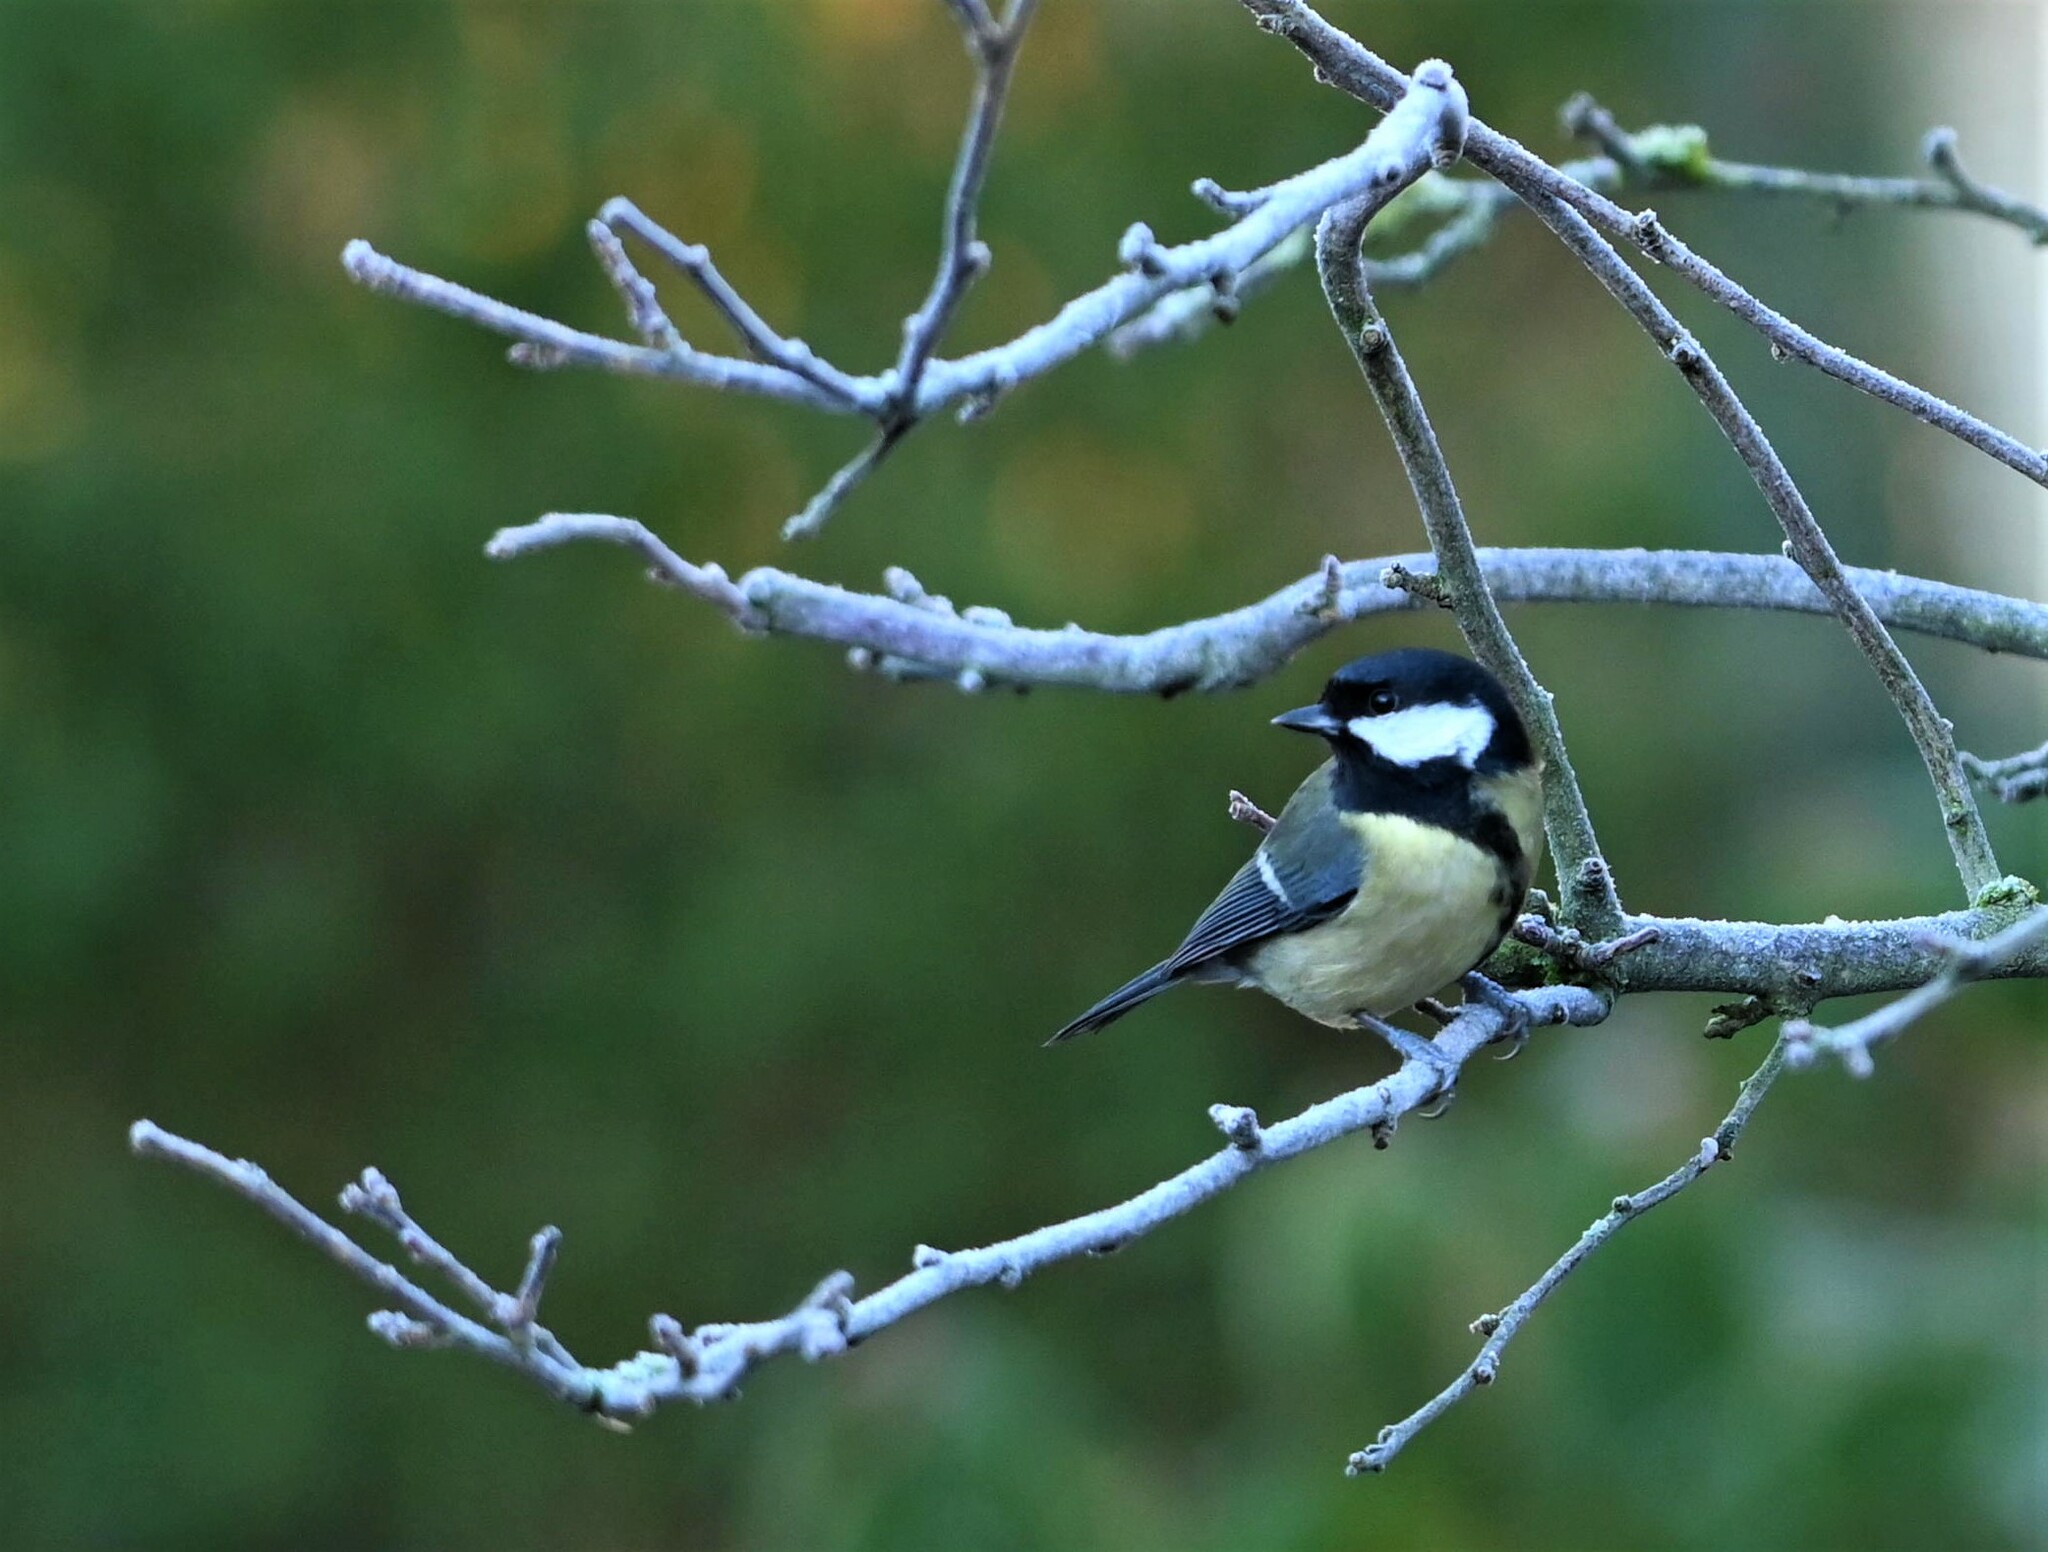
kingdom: Animalia
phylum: Chordata
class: Aves
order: Passeriformes
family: Paridae
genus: Parus
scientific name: Parus major
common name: Great tit
